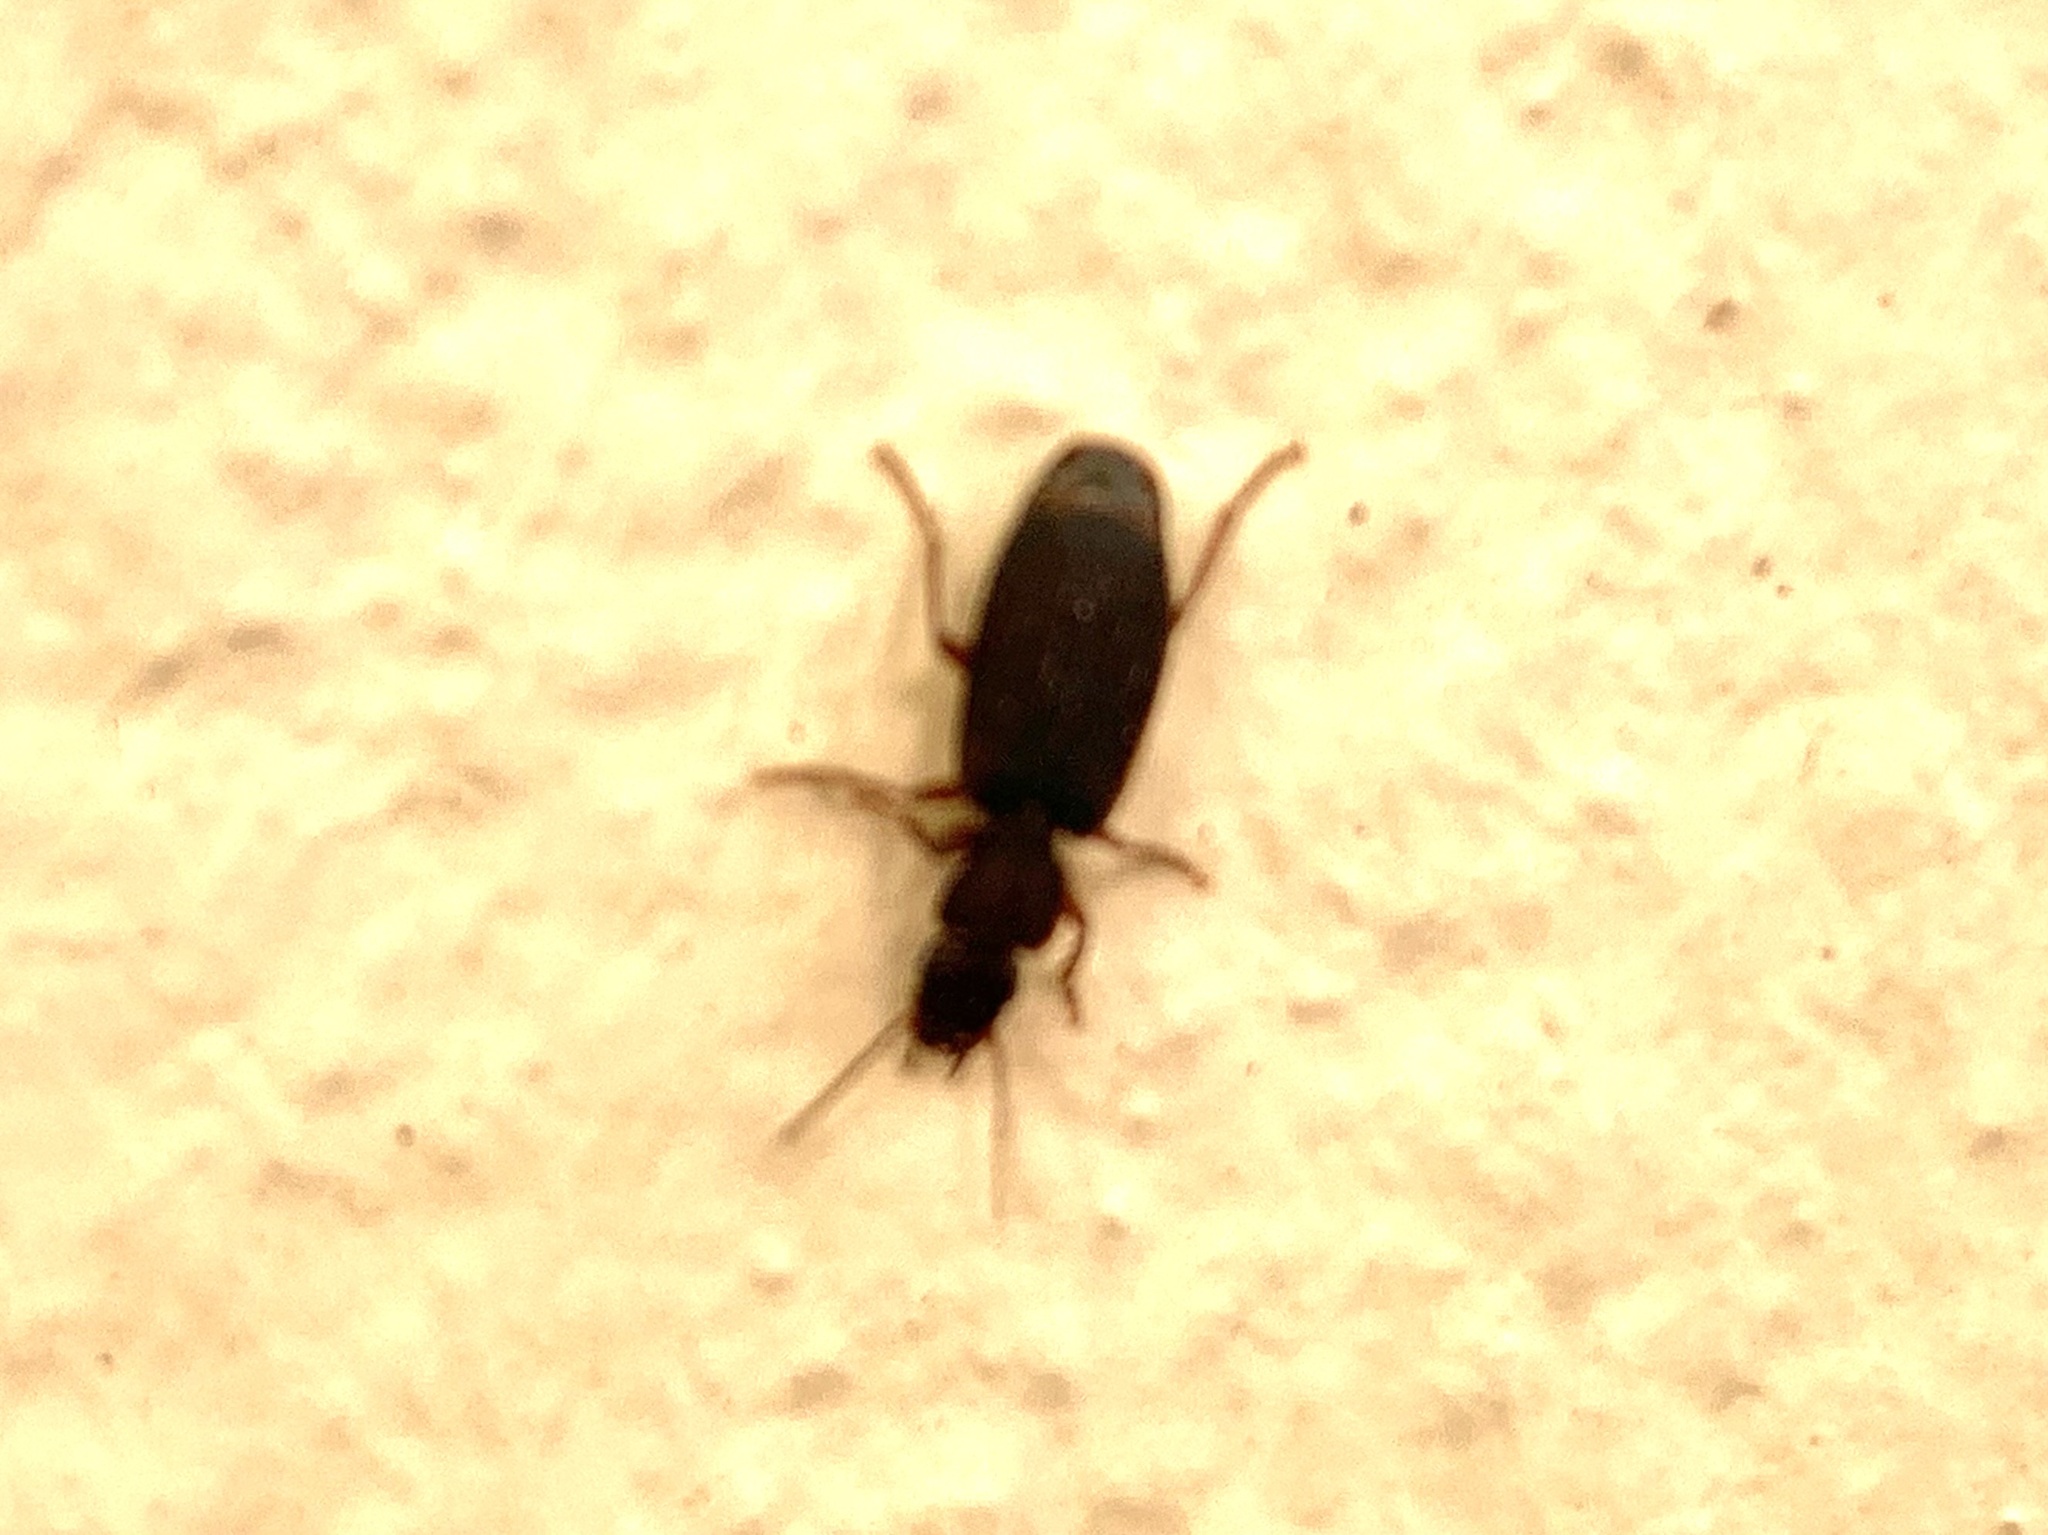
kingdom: Animalia
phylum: Arthropoda
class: Insecta
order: Coleoptera
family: Carabidae
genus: Platytarus
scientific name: Platytarus faminii
